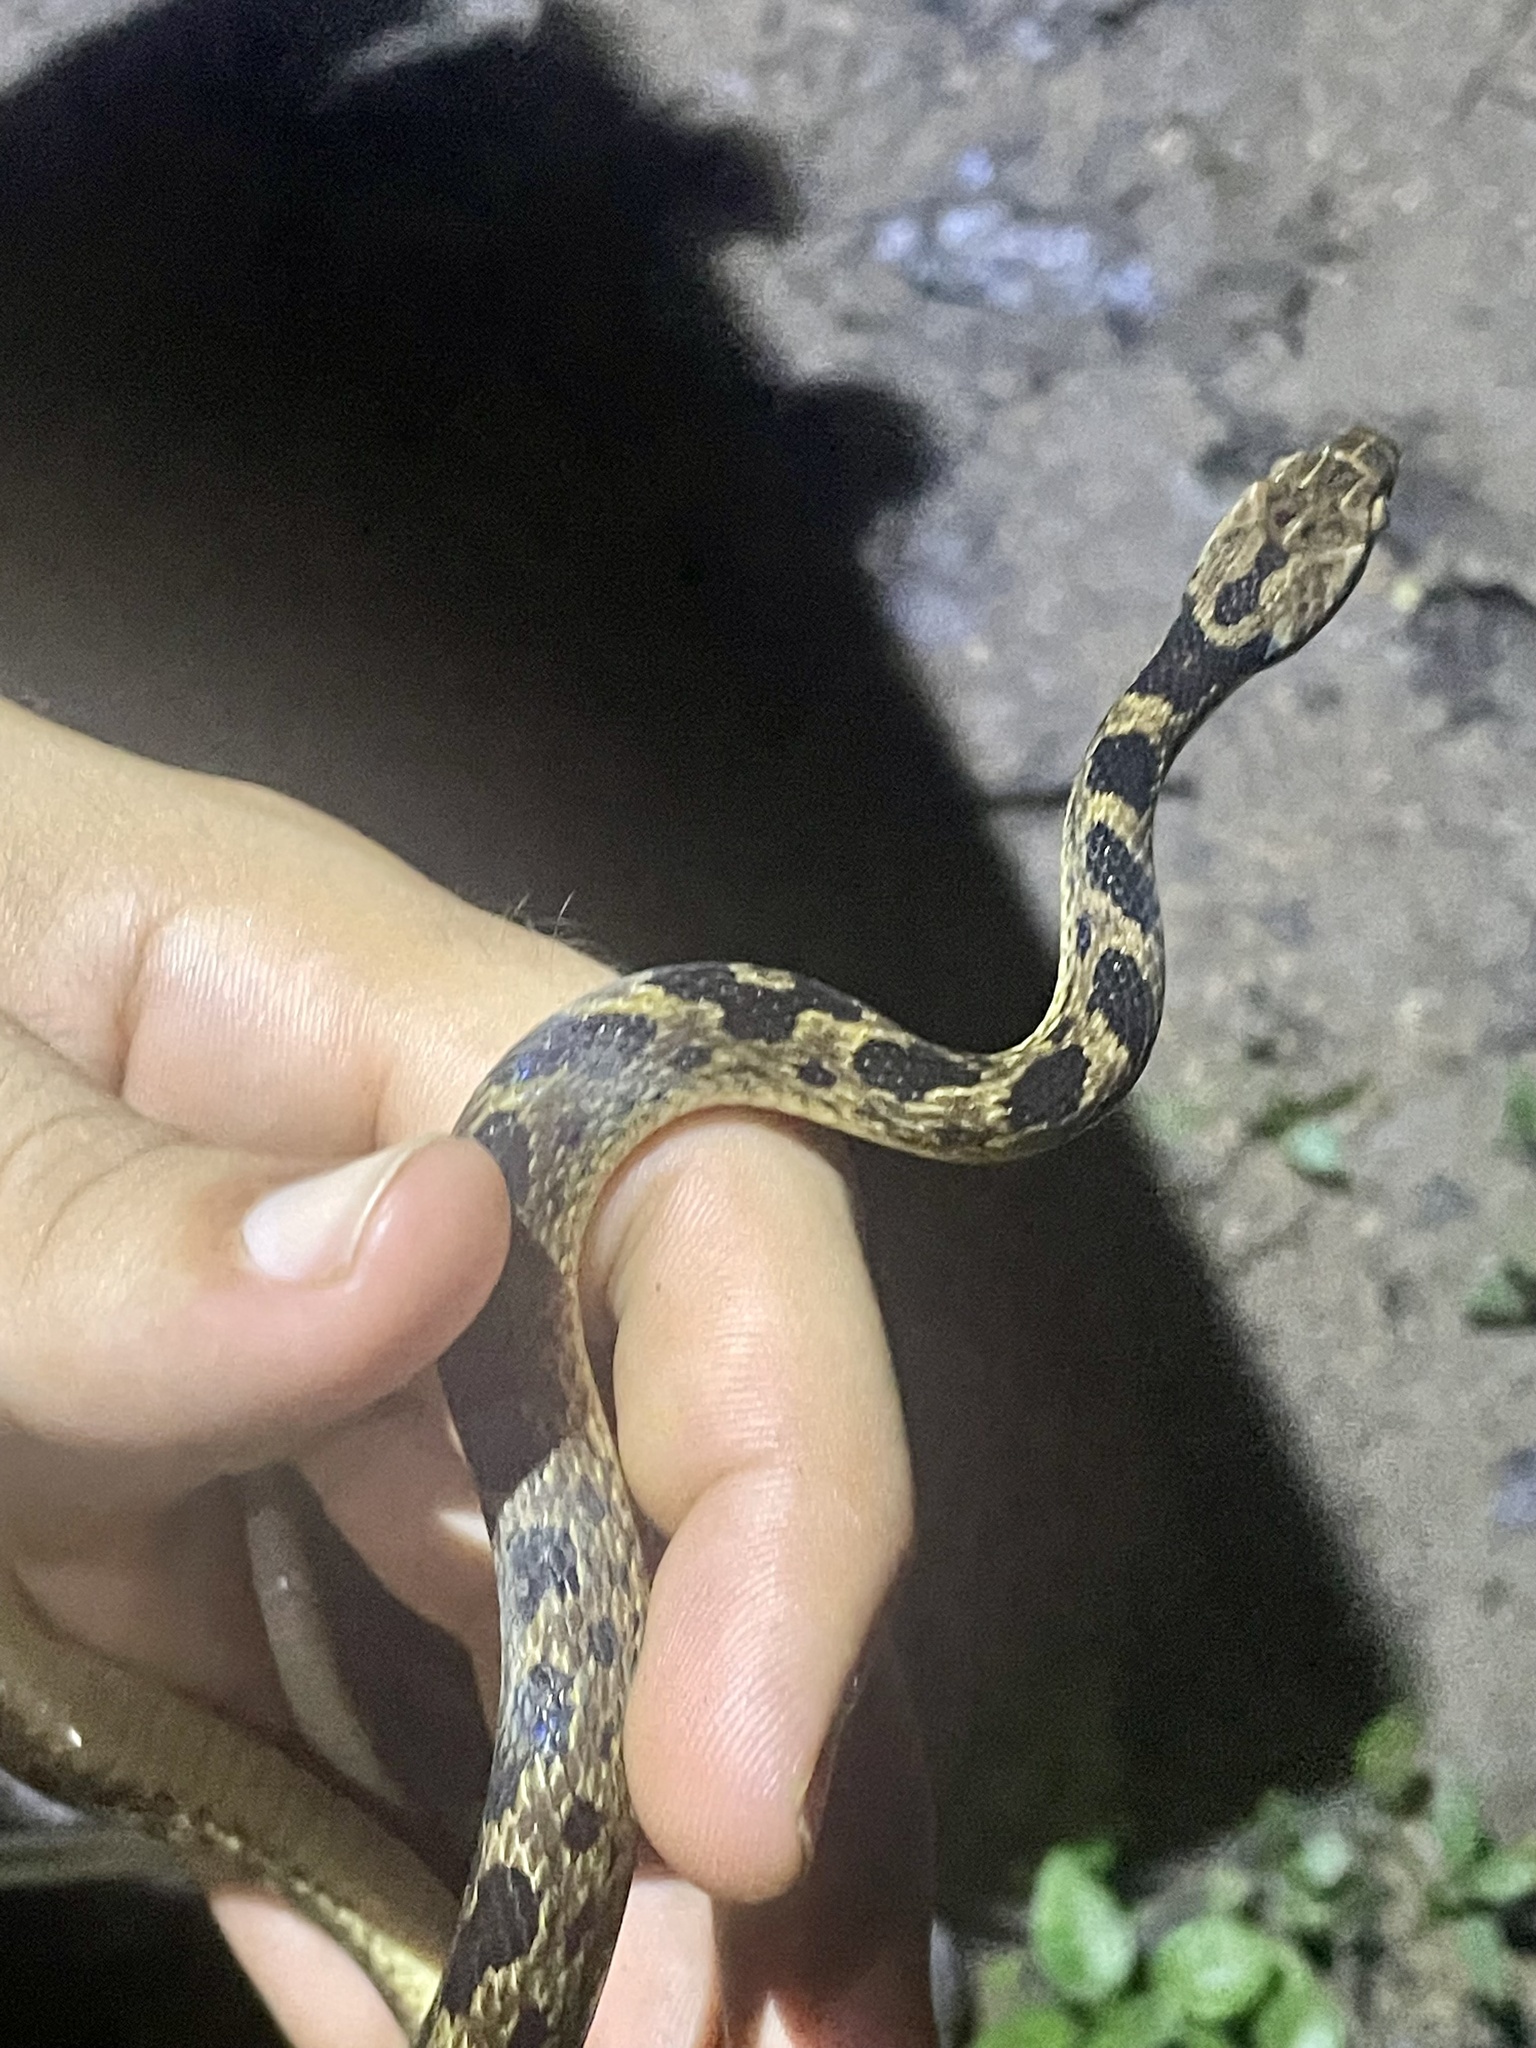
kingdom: Animalia
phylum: Chordata
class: Squamata
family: Colubridae
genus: Leptodeira
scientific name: Leptodeira rhombifera
